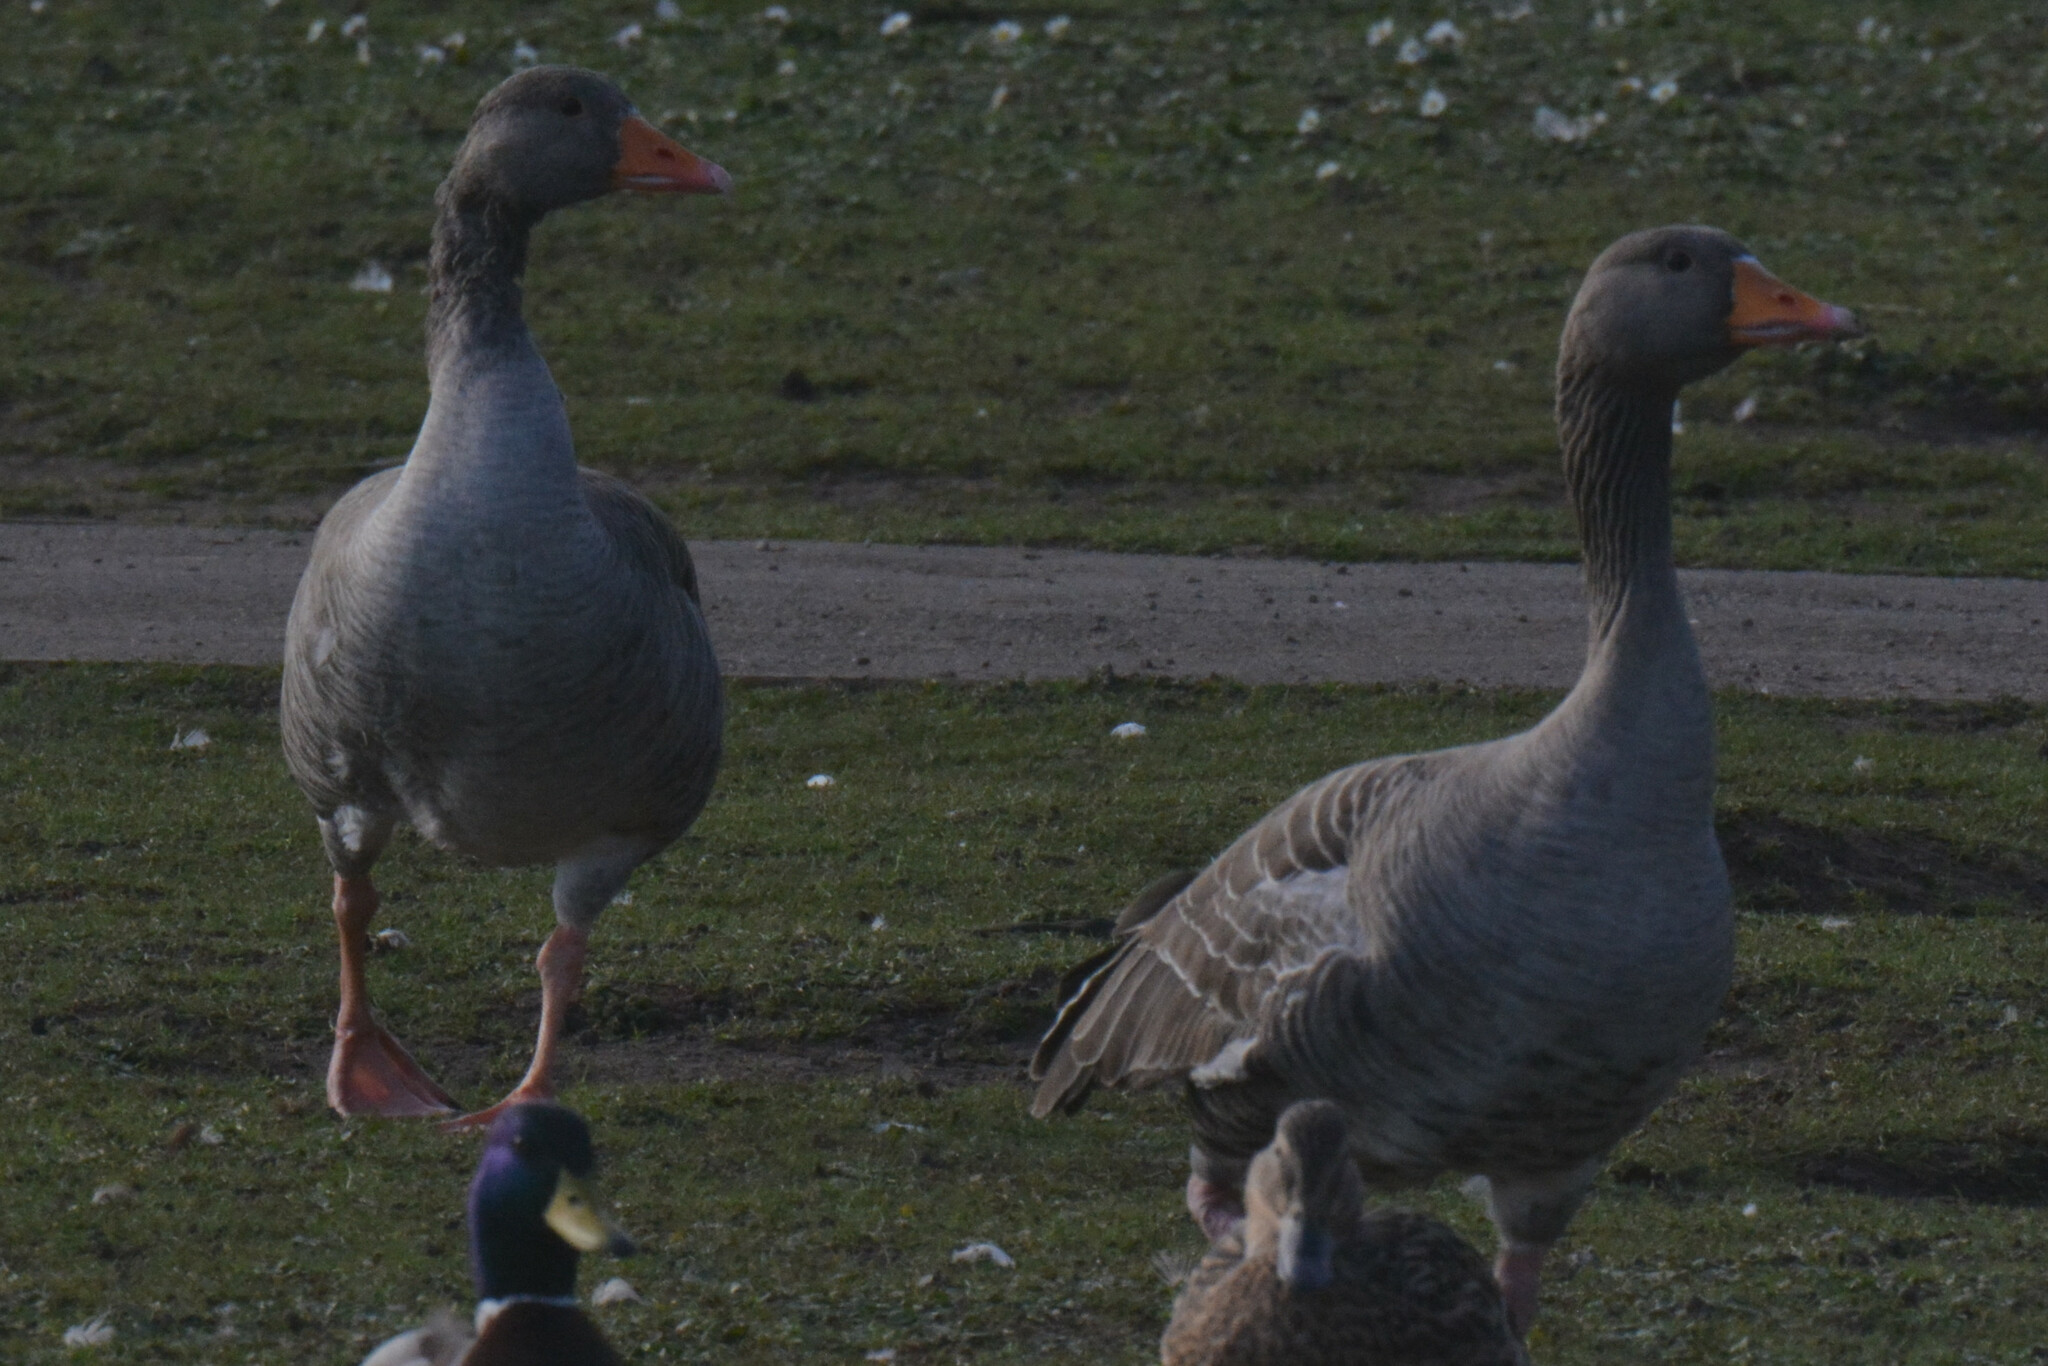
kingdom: Animalia
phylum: Chordata
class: Aves
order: Anseriformes
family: Anatidae
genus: Anser
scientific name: Anser anser
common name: Greylag goose
